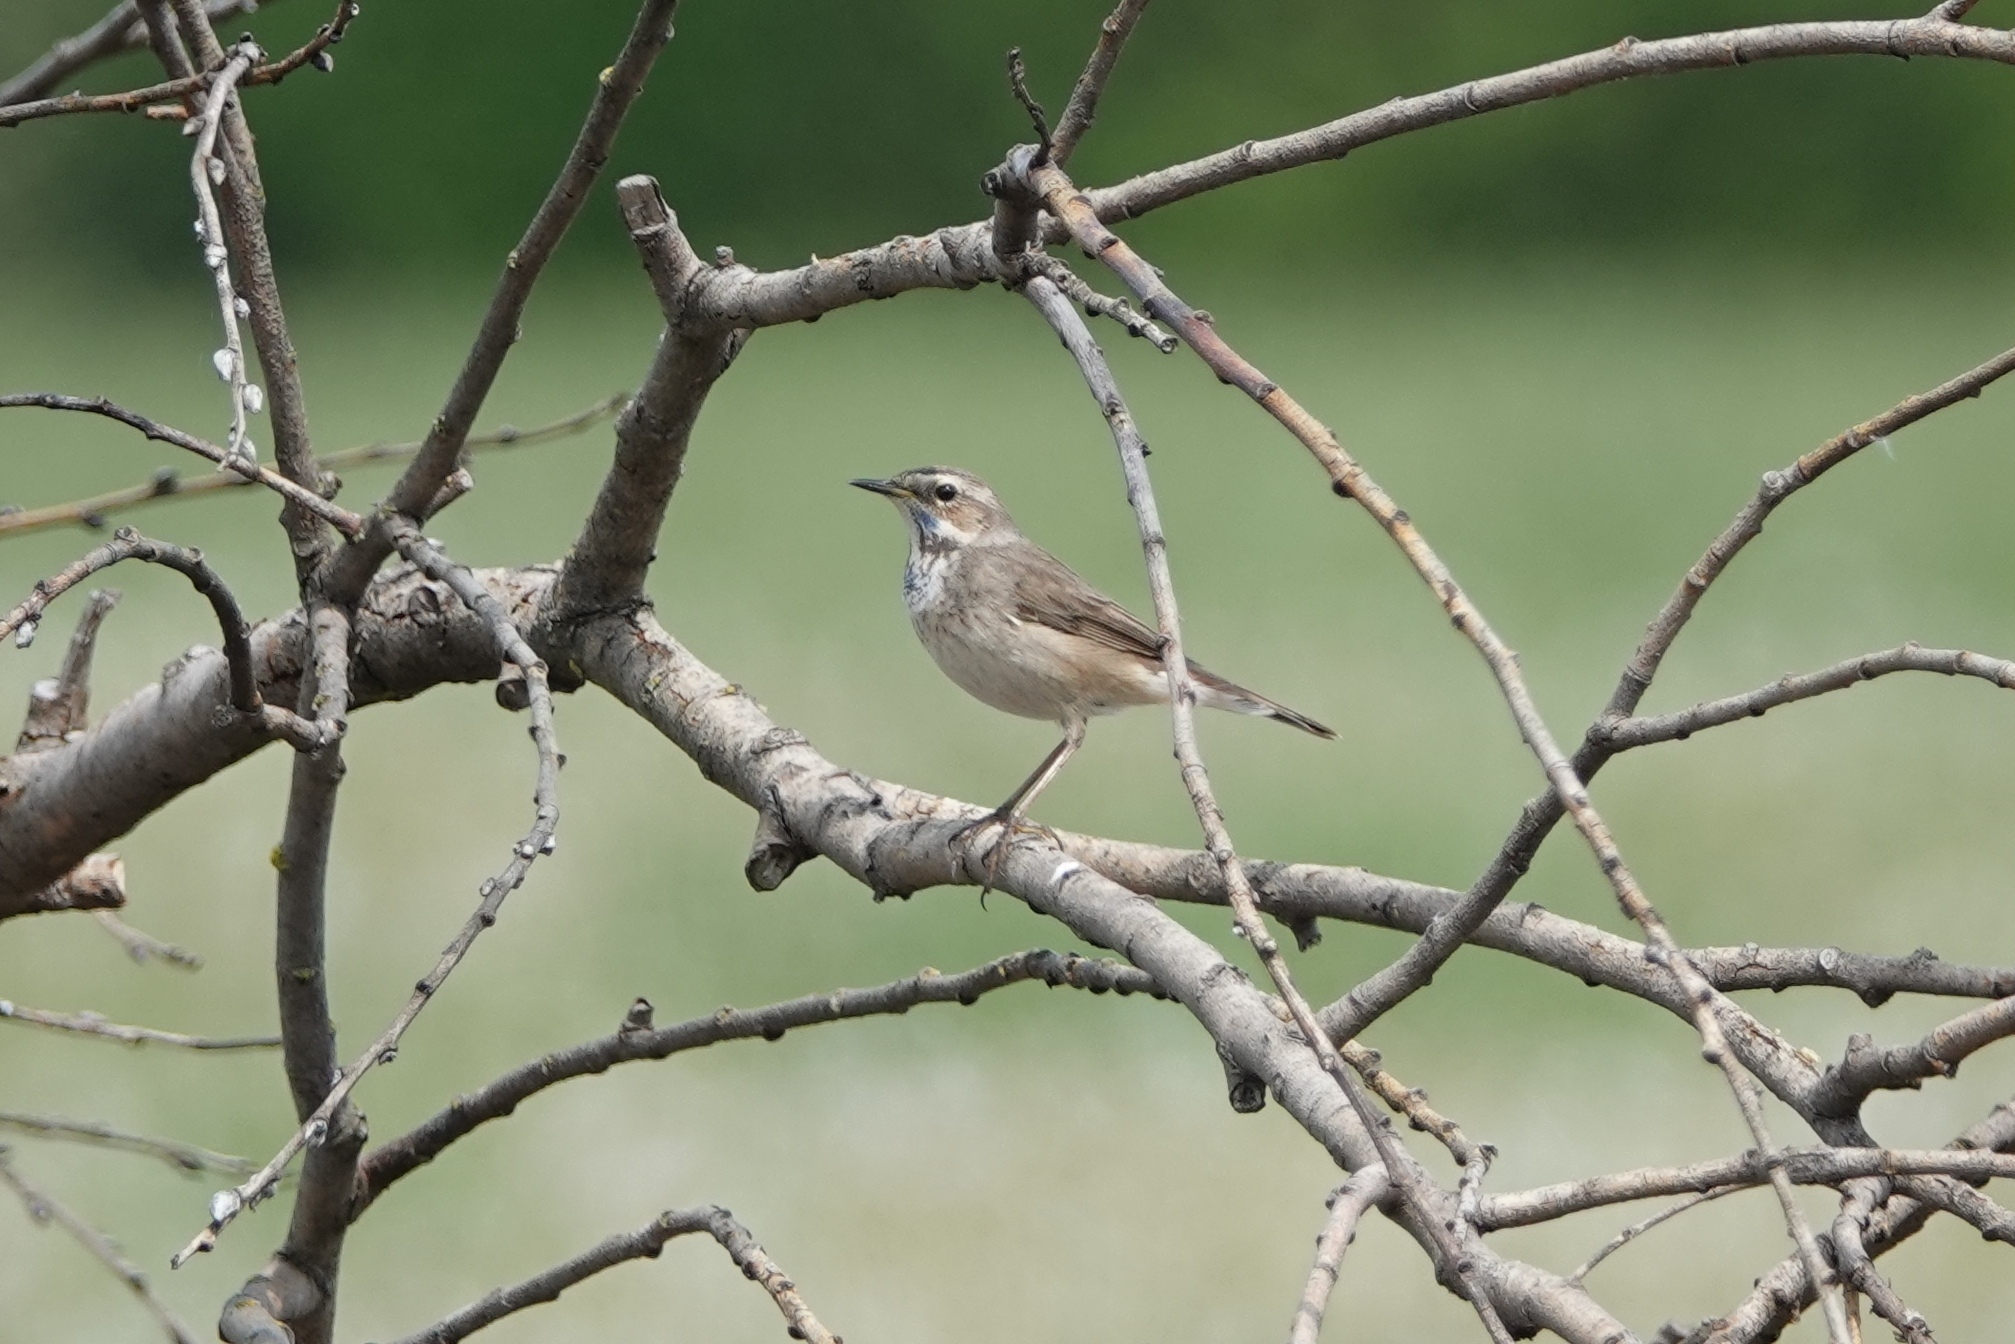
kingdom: Animalia
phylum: Chordata
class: Aves
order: Passeriformes
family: Muscicapidae
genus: Luscinia
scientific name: Luscinia svecica
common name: Bluethroat
